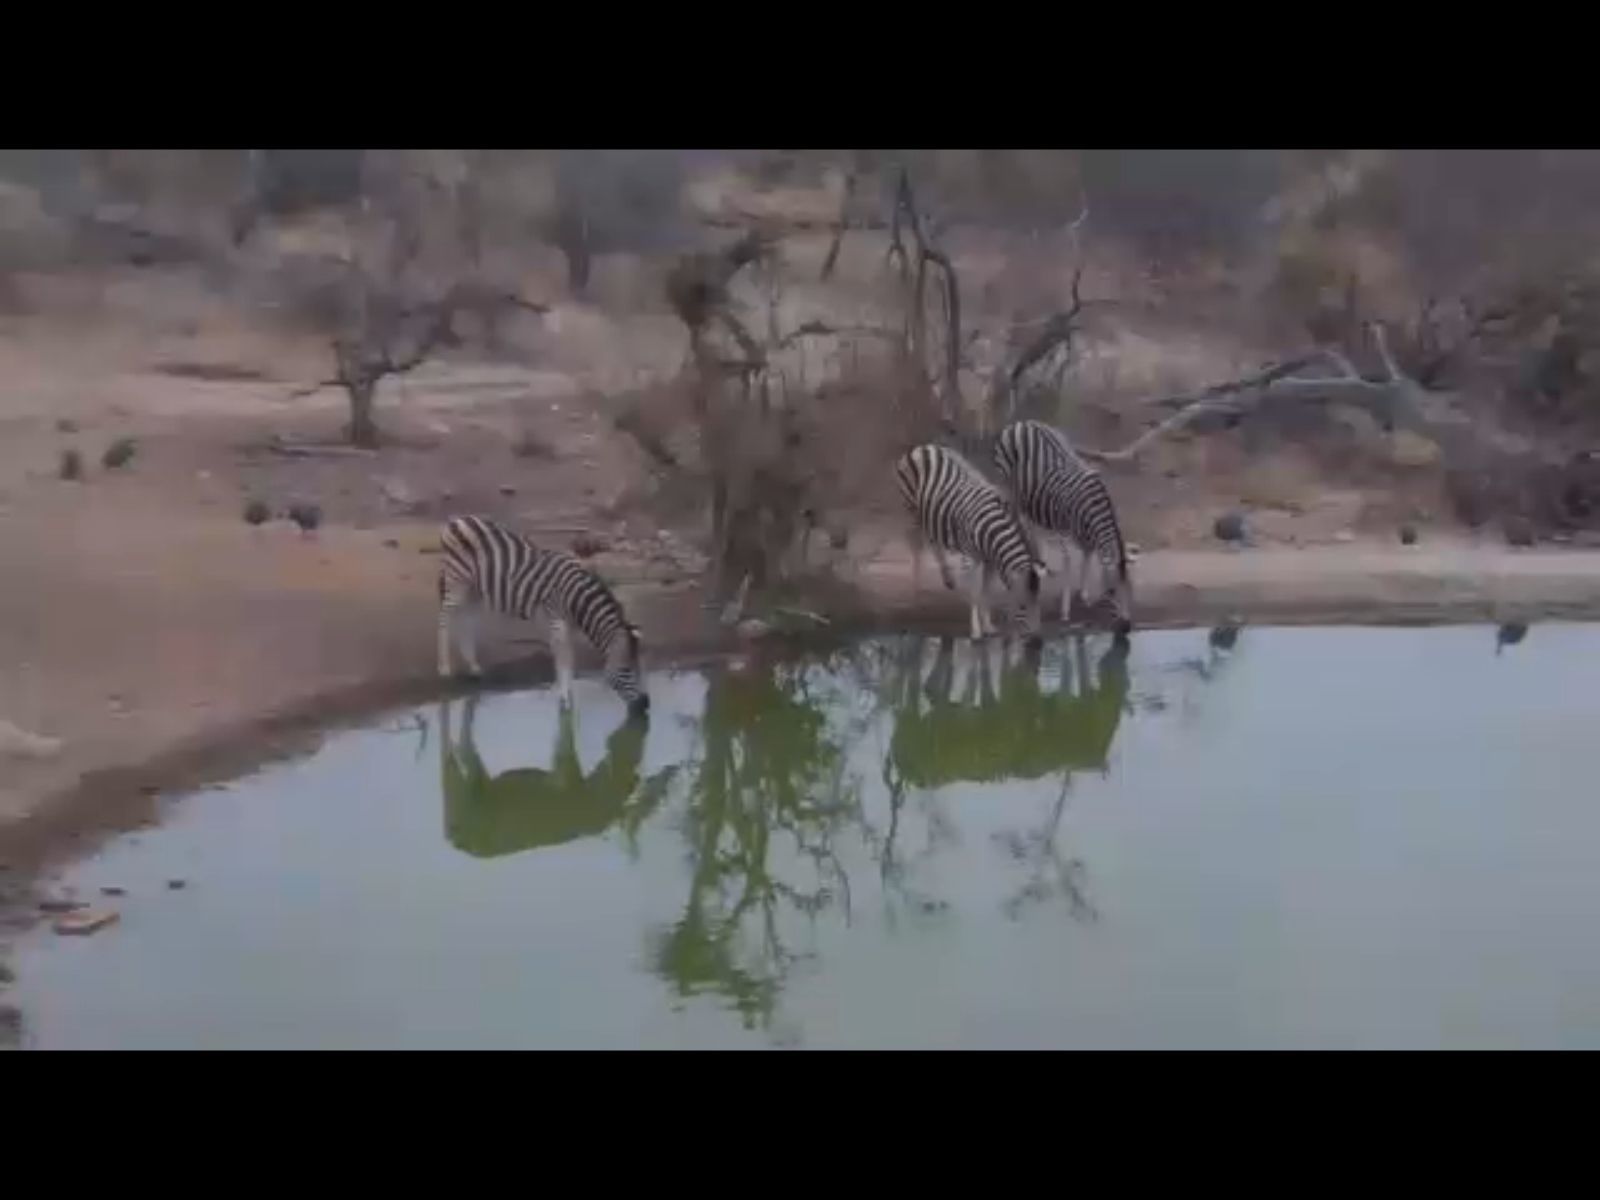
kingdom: Animalia
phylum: Chordata
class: Mammalia
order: Perissodactyla
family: Equidae
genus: Equus
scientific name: Equus
